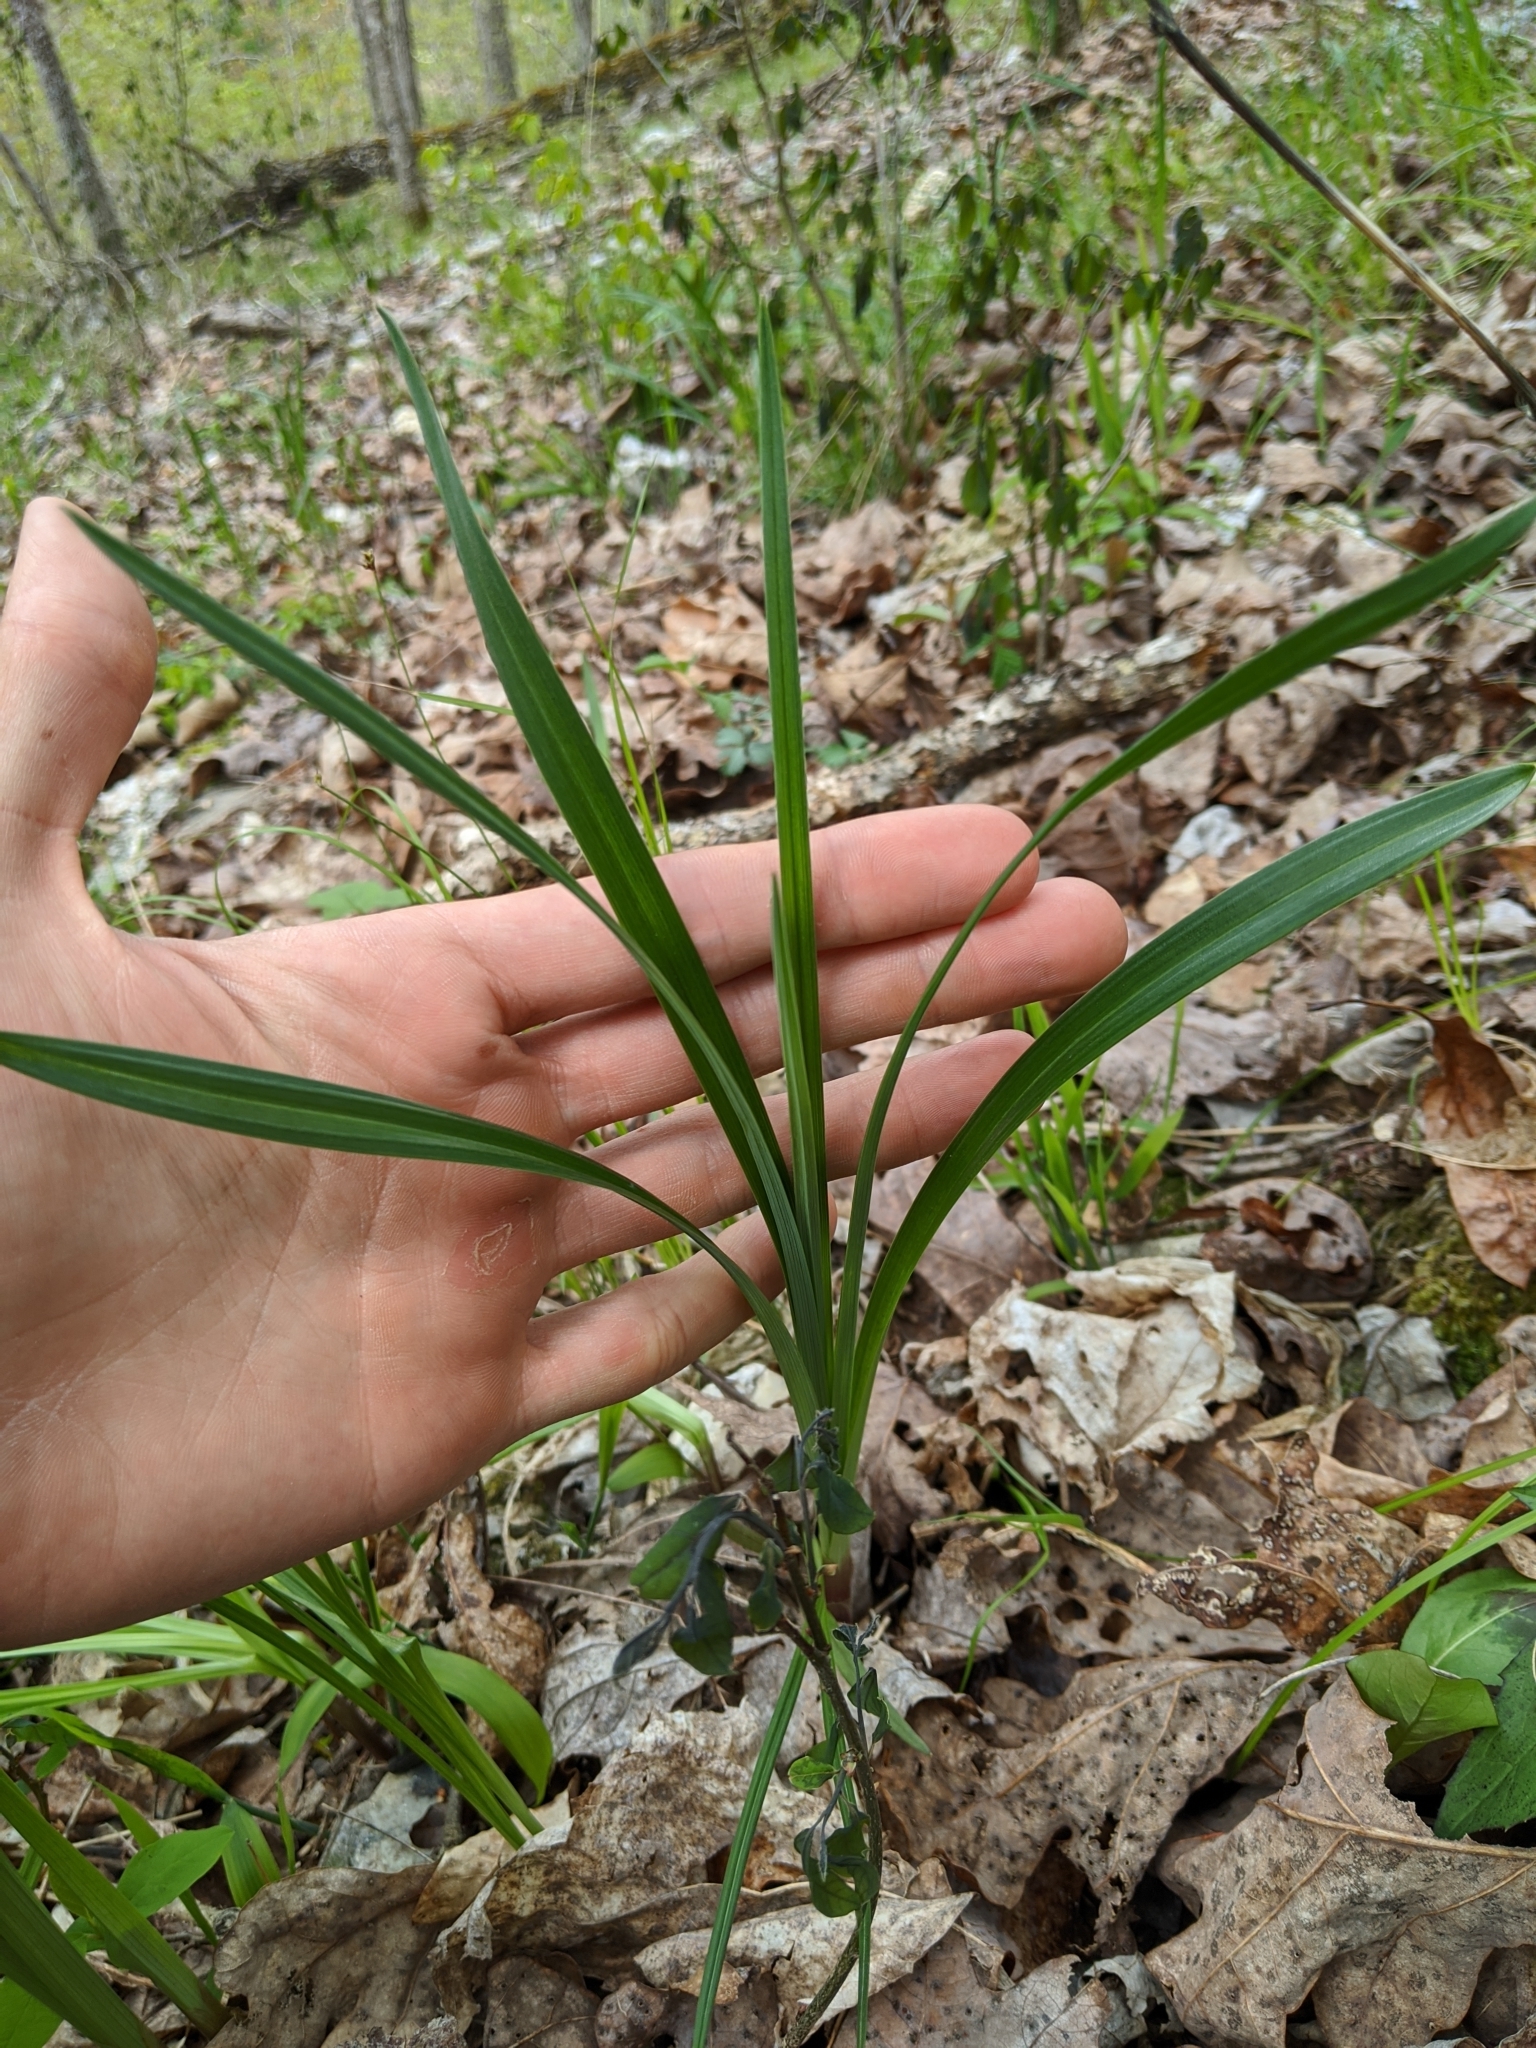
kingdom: Plantae
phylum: Tracheophyta
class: Liliopsida
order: Liliales
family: Melanthiaceae
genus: Stenanthium
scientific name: Stenanthium gramineum
